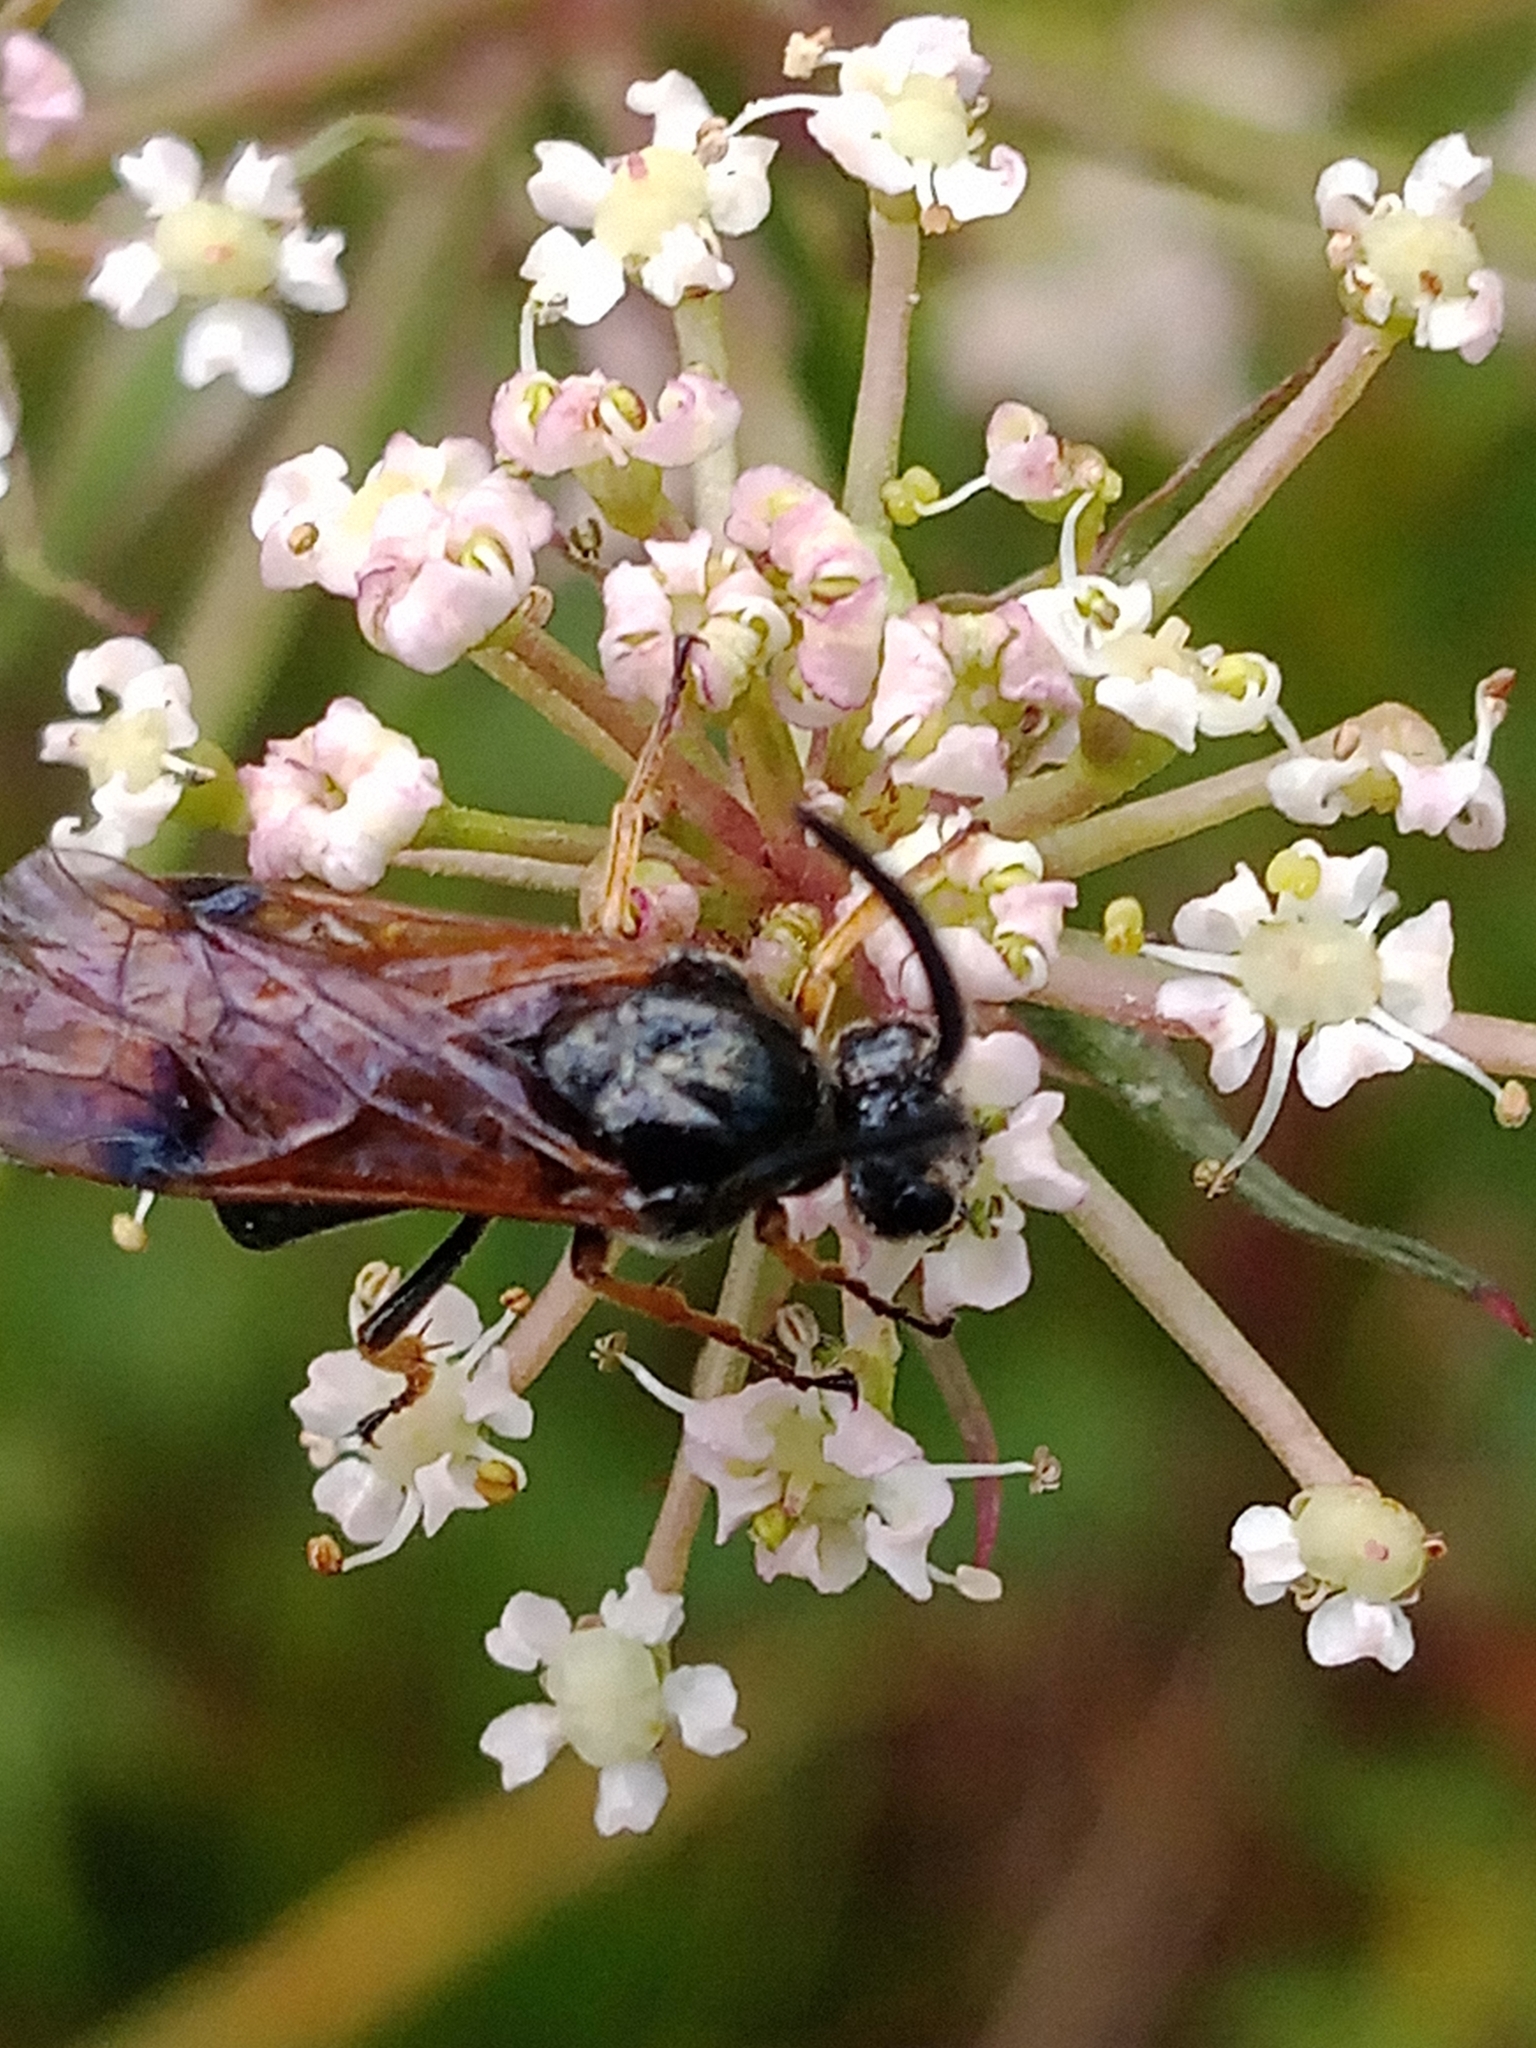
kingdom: Animalia
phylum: Arthropoda
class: Insecta
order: Hymenoptera
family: Argidae
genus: Arge
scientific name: Arge ustulata
